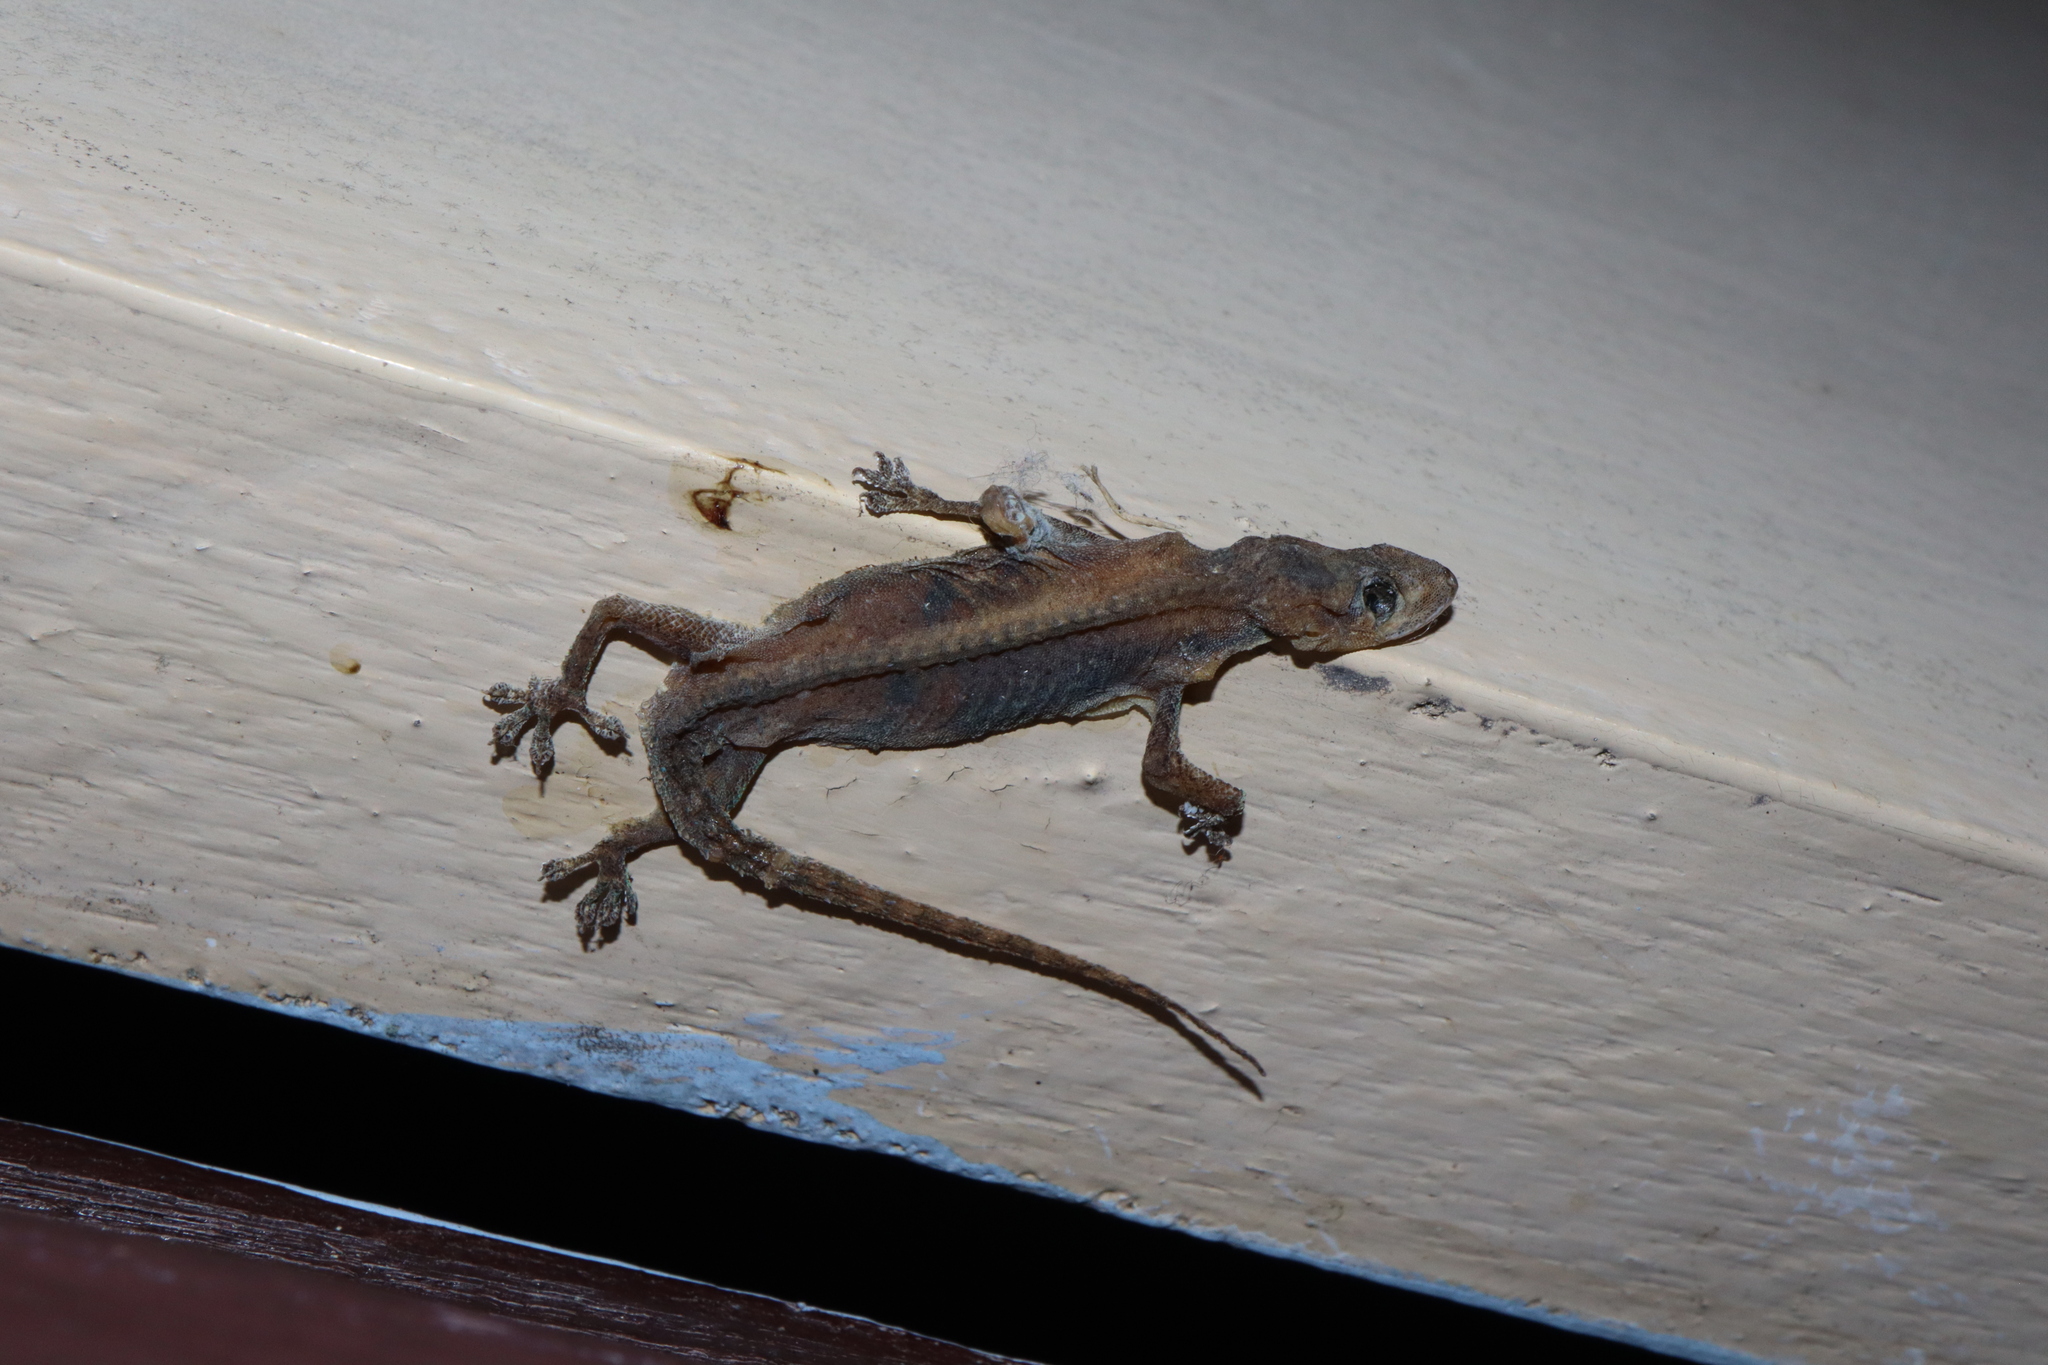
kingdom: Animalia
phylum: Chordata
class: Squamata
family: Gekkonidae
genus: Hemidactylus
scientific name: Hemidactylus frenatus
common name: Common house gecko
